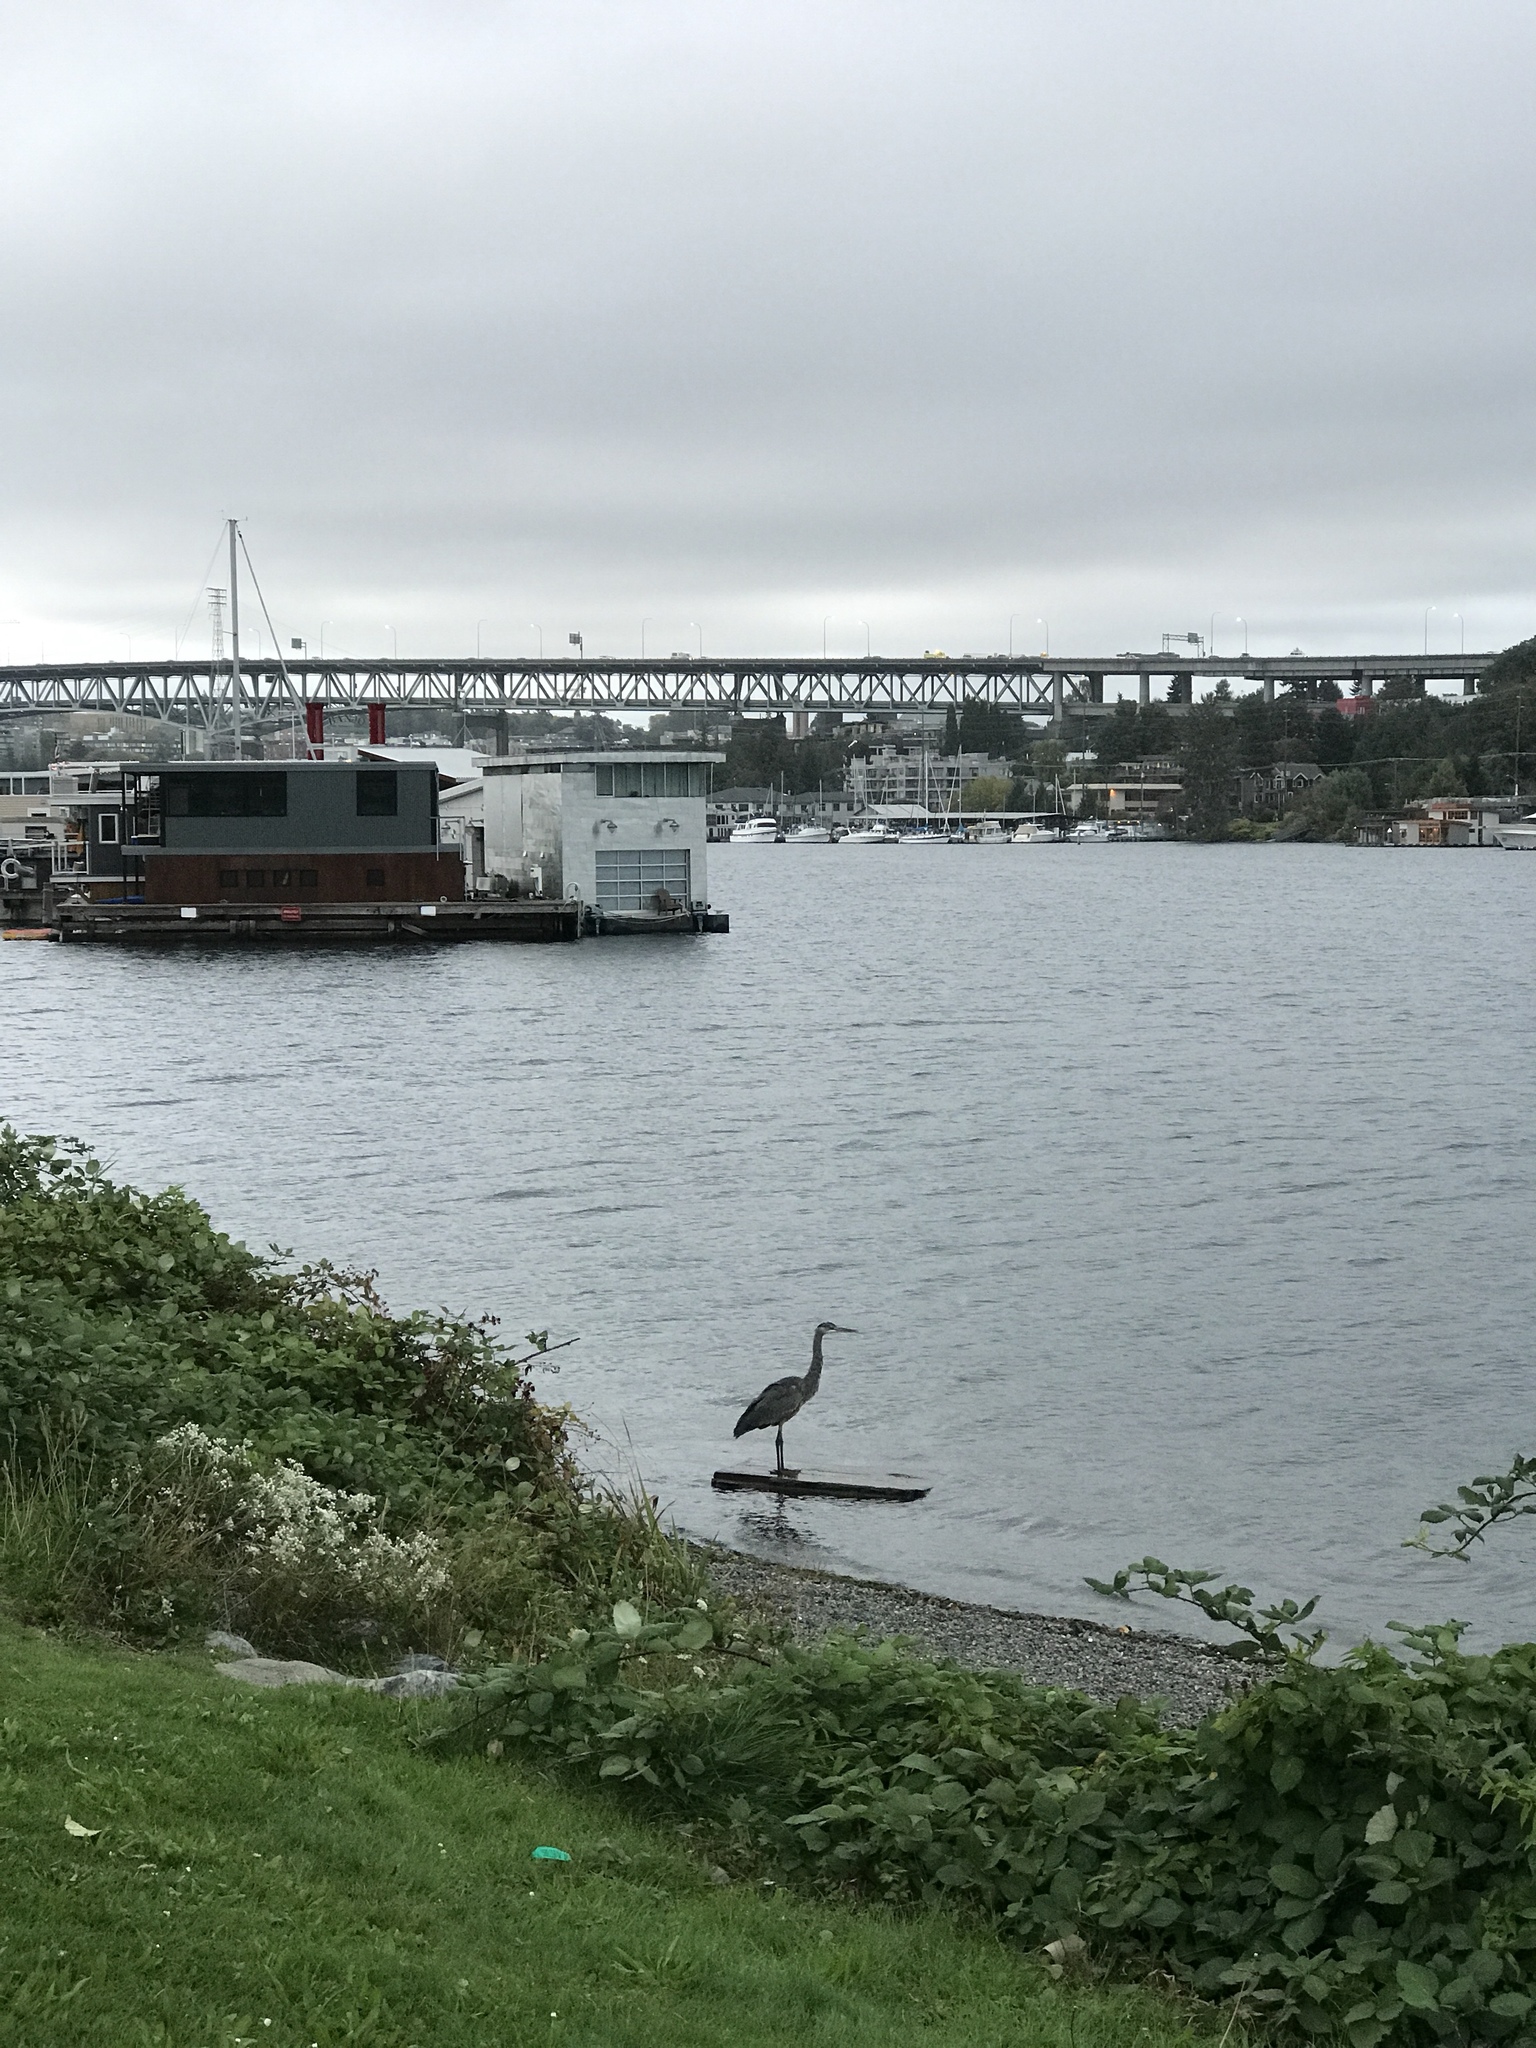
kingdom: Animalia
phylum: Chordata
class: Aves
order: Pelecaniformes
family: Ardeidae
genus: Ardea
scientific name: Ardea herodias
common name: Great blue heron
